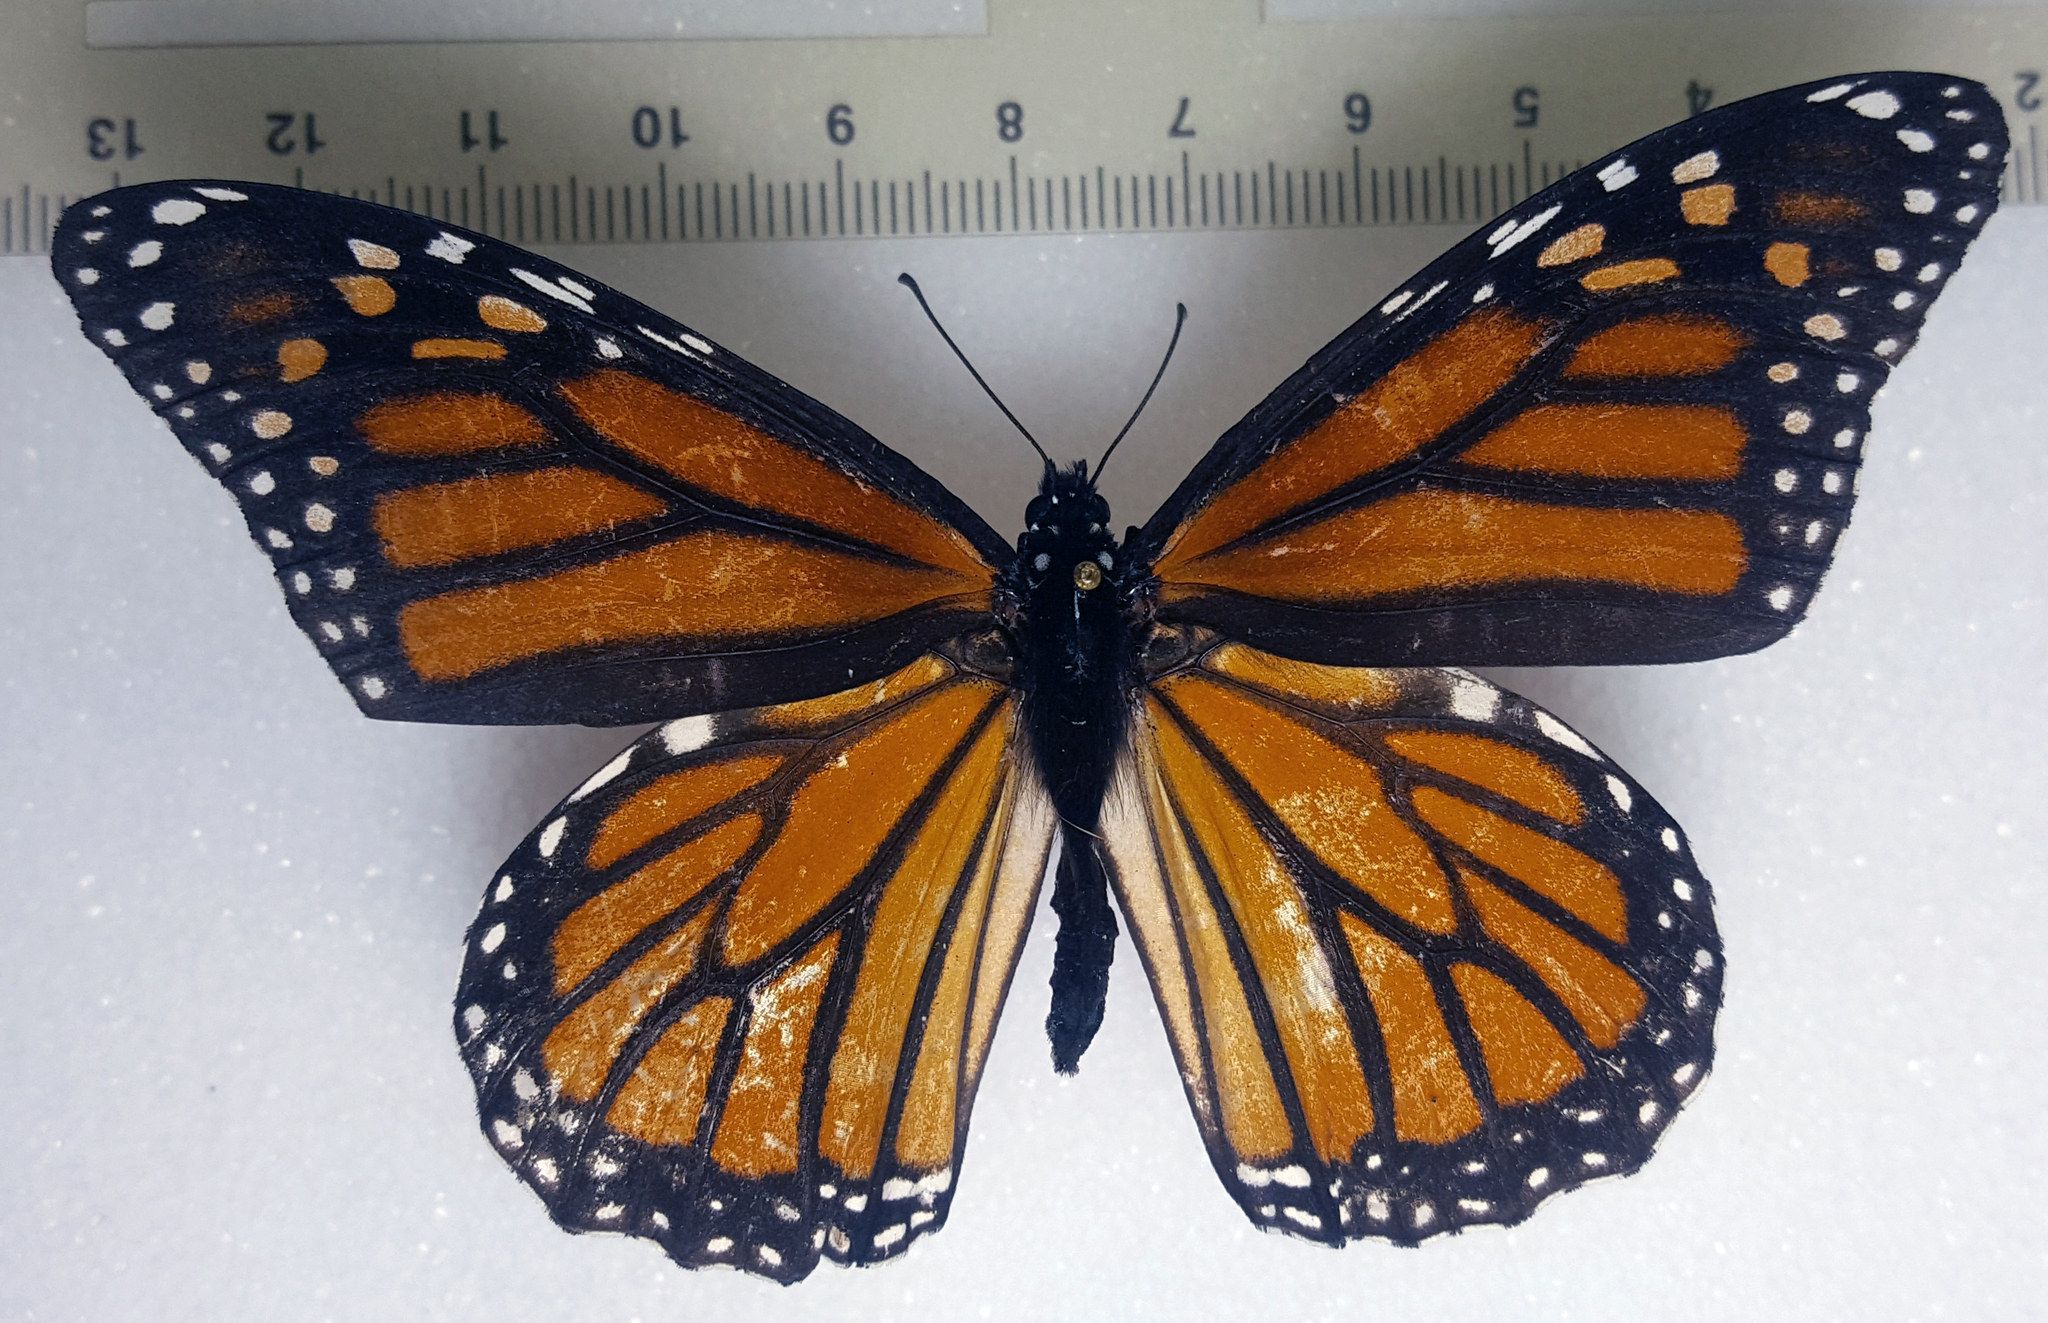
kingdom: Animalia
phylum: Arthropoda
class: Insecta
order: Lepidoptera
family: Nymphalidae
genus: Danaus
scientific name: Danaus plexippus
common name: Monarch
